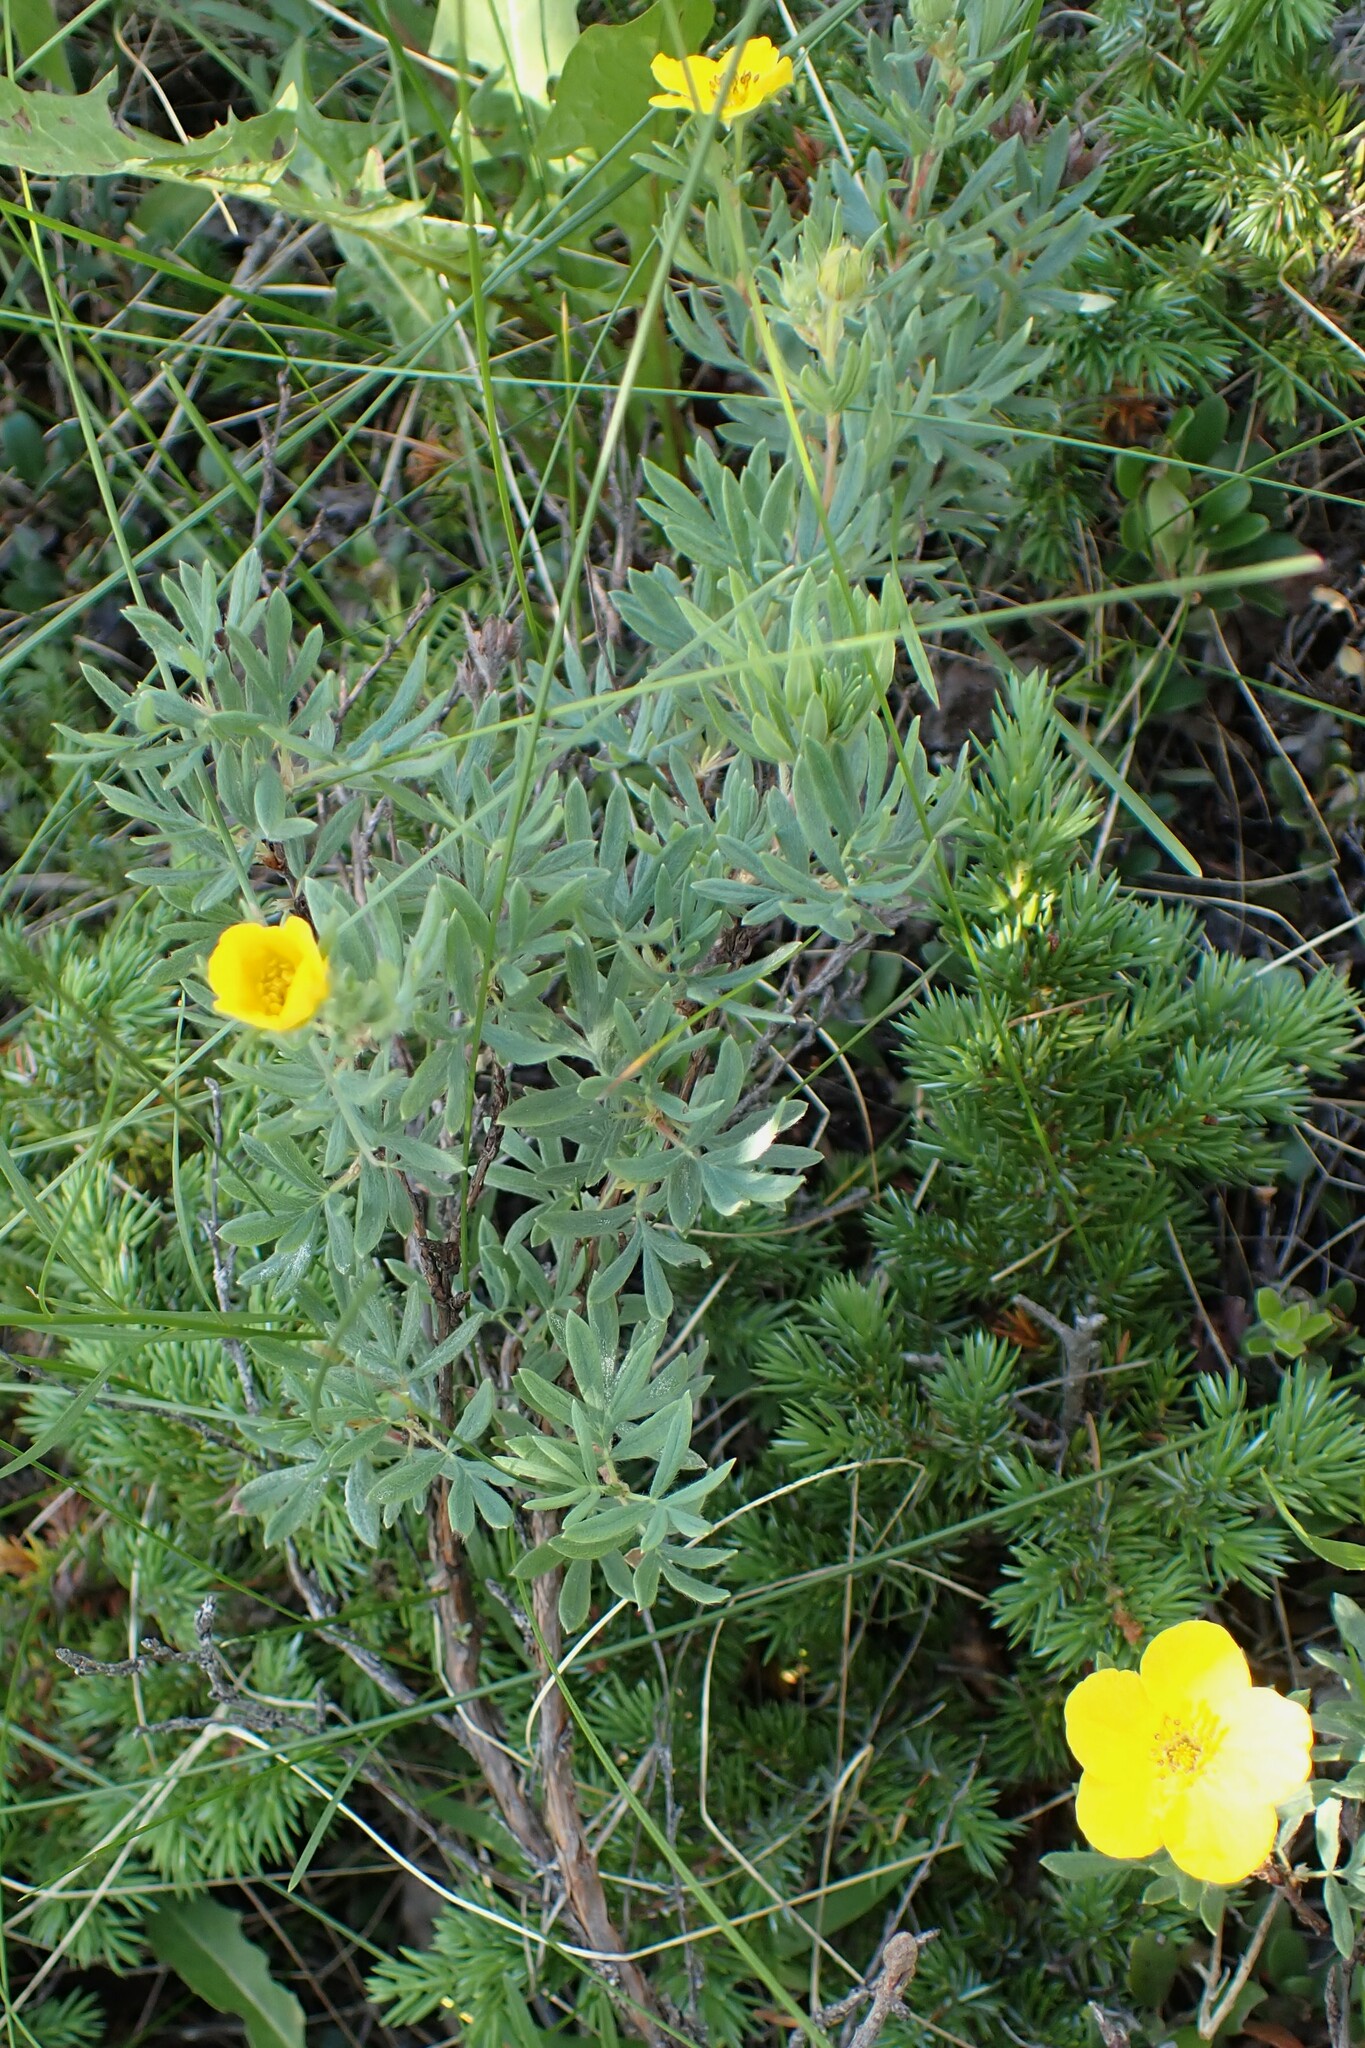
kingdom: Plantae
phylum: Tracheophyta
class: Magnoliopsida
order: Rosales
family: Rosaceae
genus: Dasiphora
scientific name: Dasiphora fruticosa
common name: Shrubby cinquefoil
